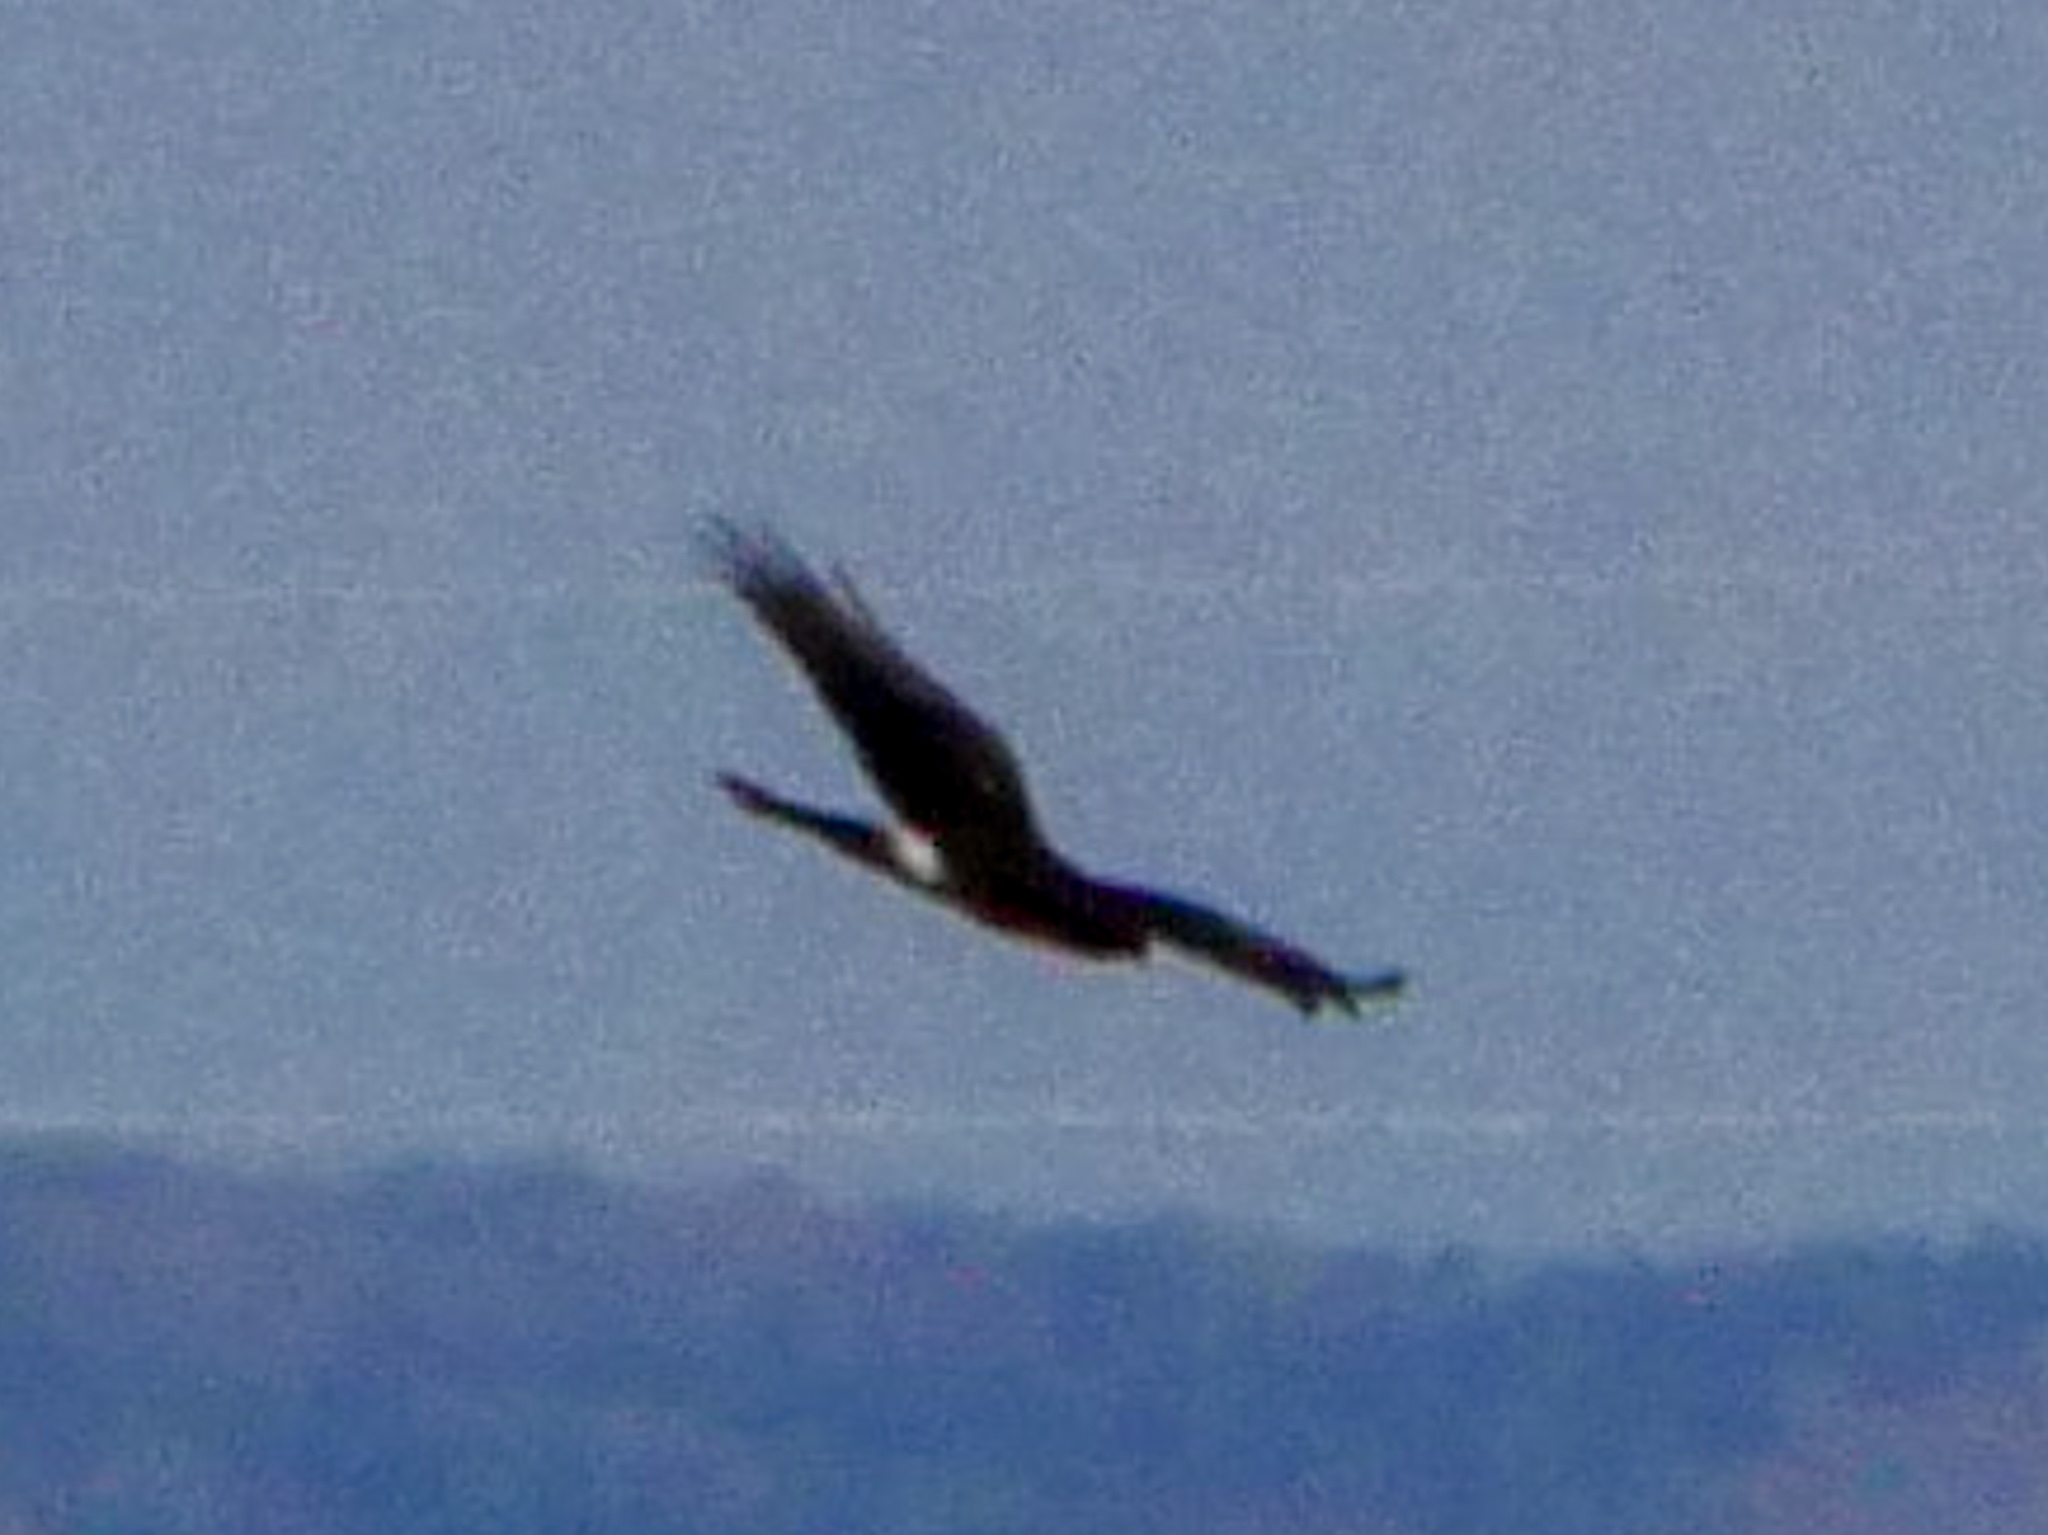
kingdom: Animalia
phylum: Chordata
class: Aves
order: Accipitriformes
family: Accipitridae
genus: Circus
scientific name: Circus cyaneus
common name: Hen harrier
